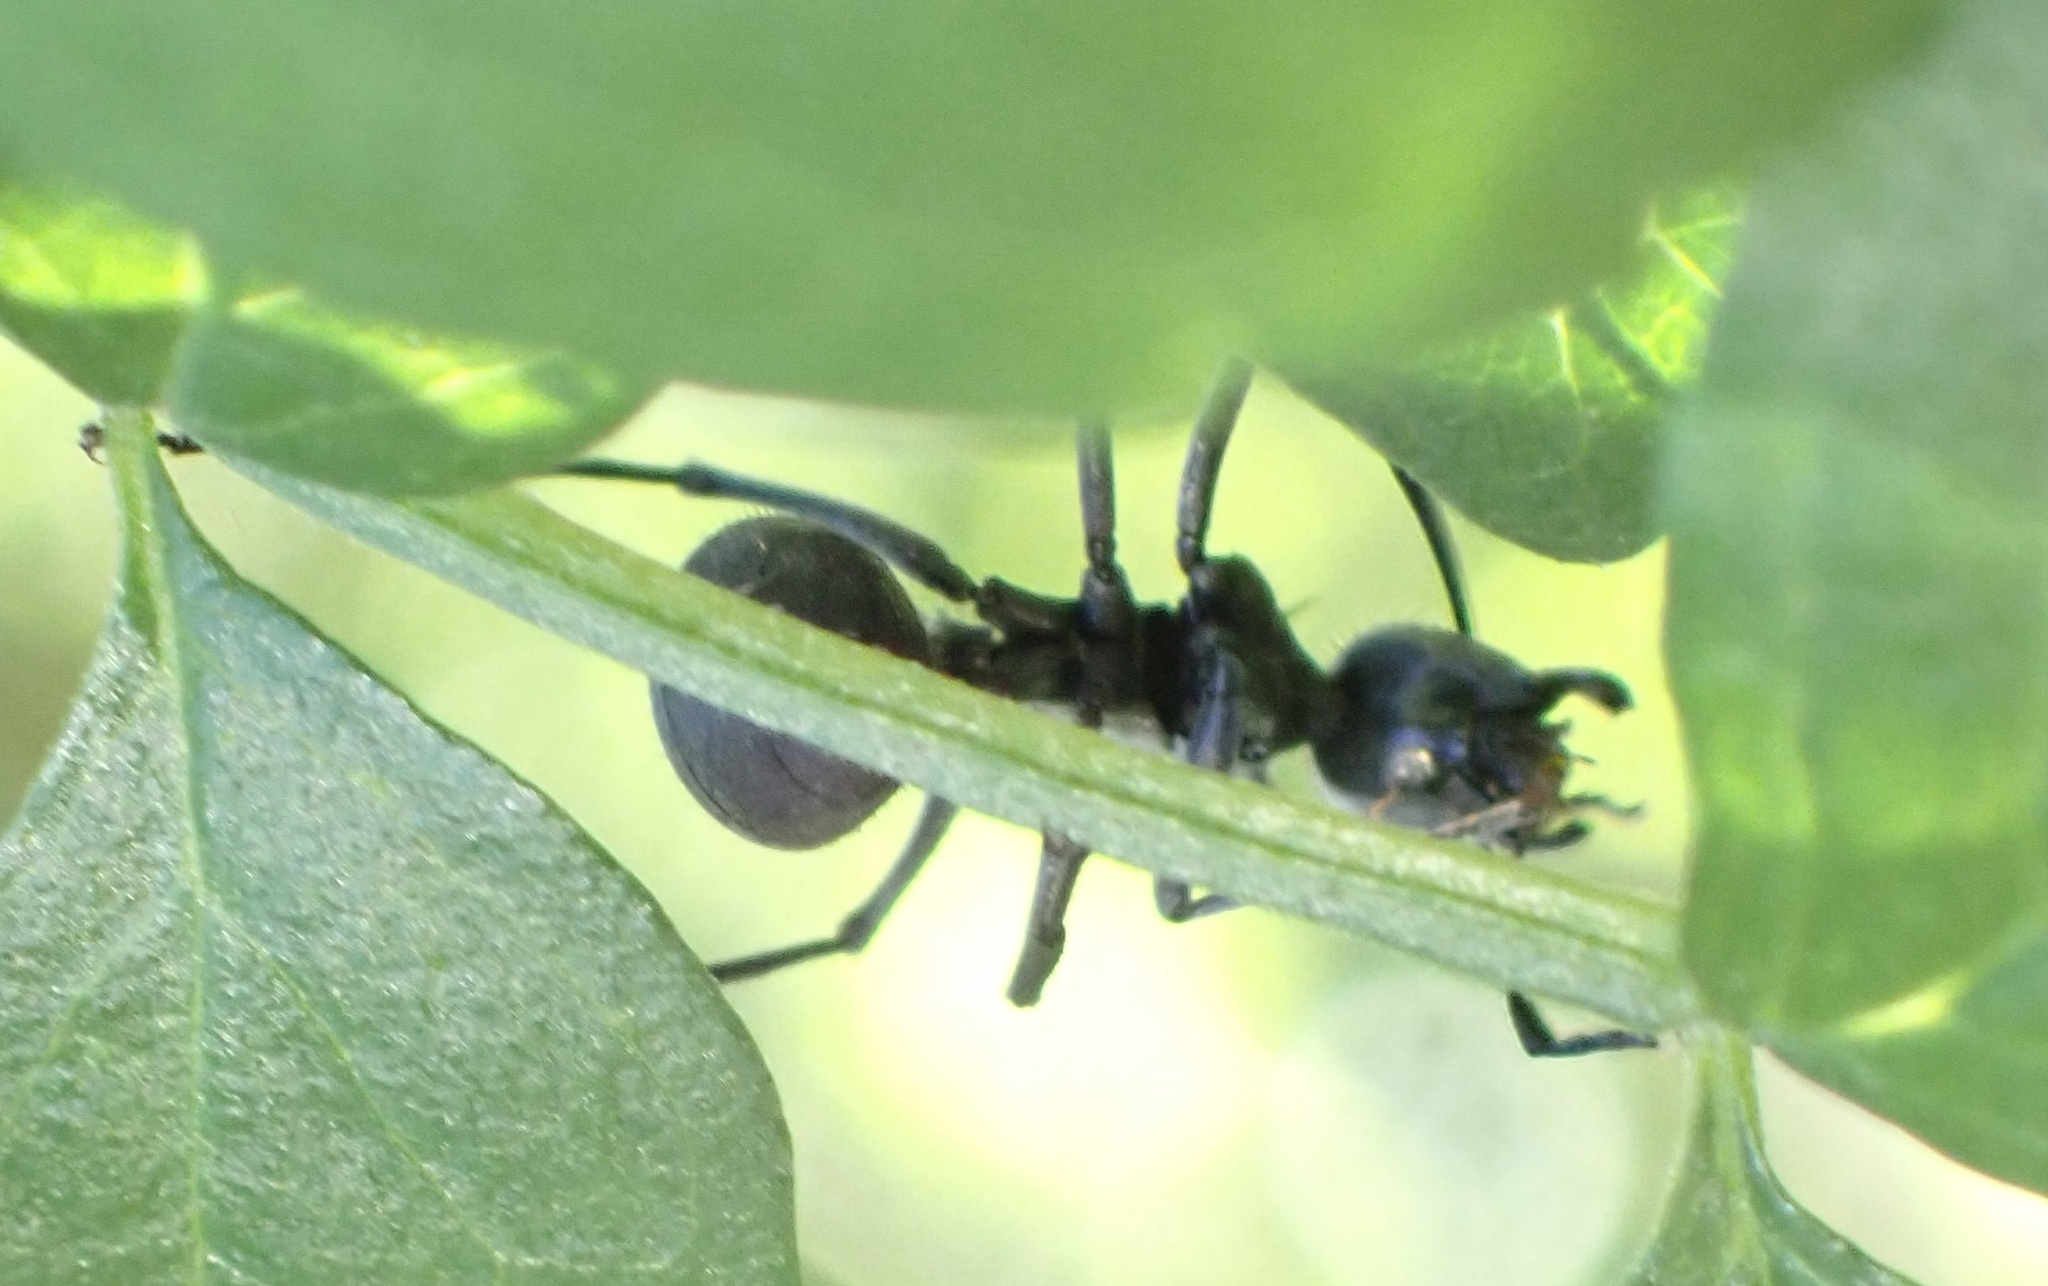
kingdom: Animalia
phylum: Arthropoda
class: Insecta
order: Hymenoptera
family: Formicidae
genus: Polyrhachis
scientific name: Polyrhachis schistacea
